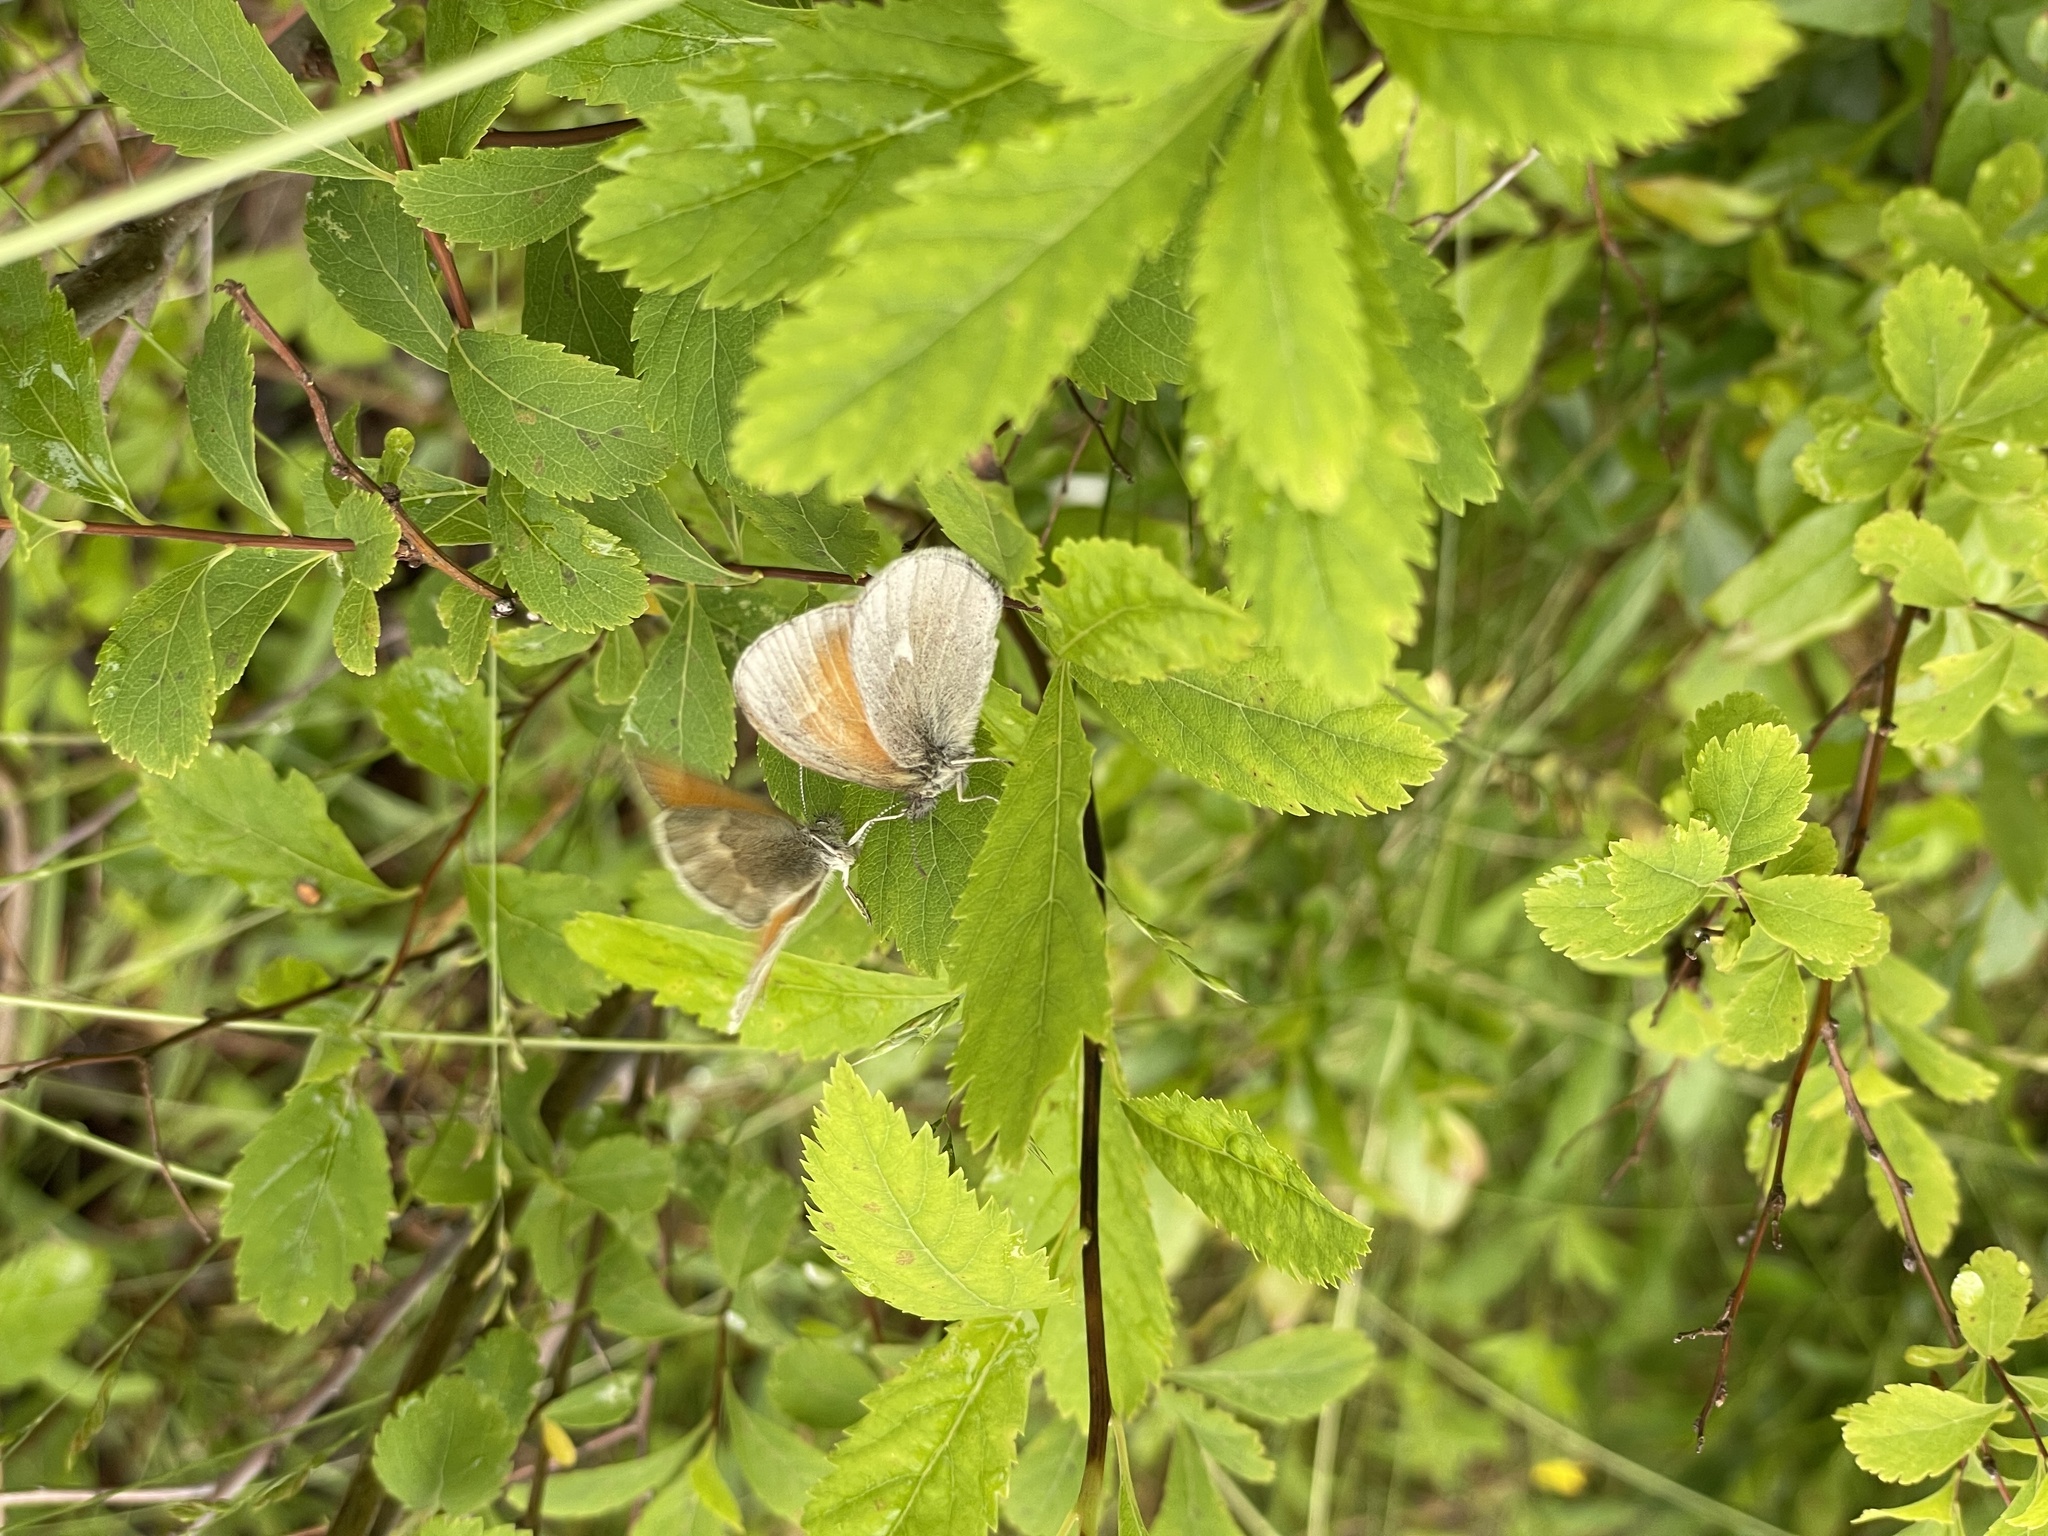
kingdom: Animalia
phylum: Arthropoda
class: Insecta
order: Lepidoptera
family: Nymphalidae
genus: Coenonympha
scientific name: Coenonympha california
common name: Common ringlet
